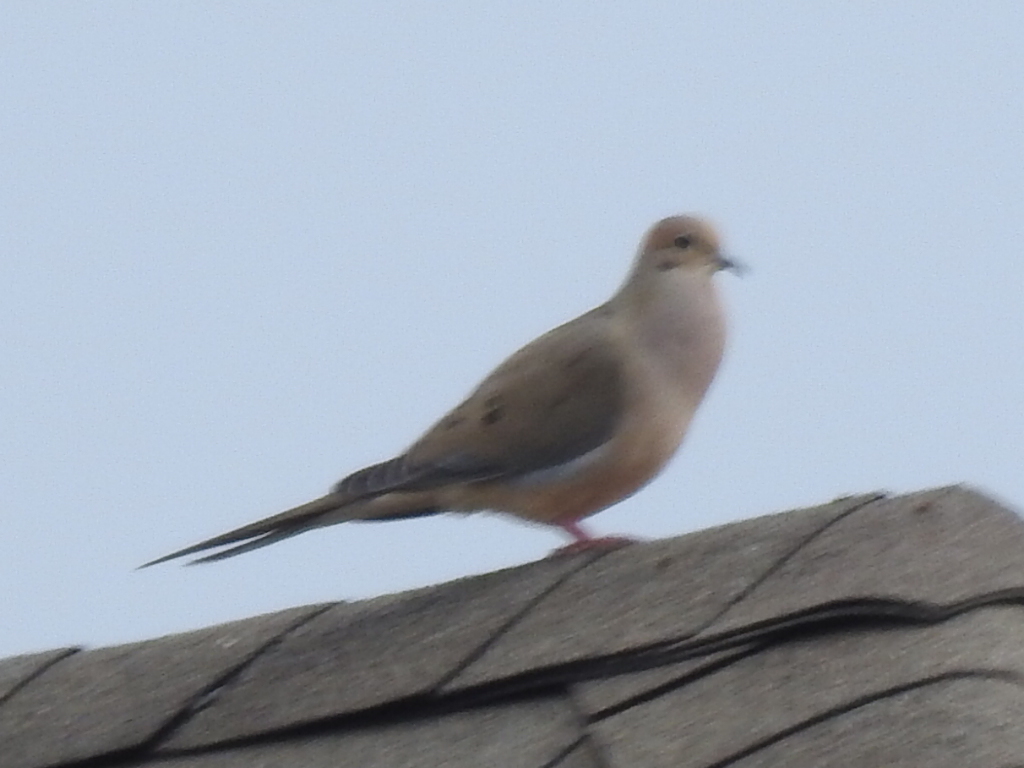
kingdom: Animalia
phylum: Chordata
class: Aves
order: Columbiformes
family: Columbidae
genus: Zenaida
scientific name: Zenaida macroura
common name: Mourning dove
